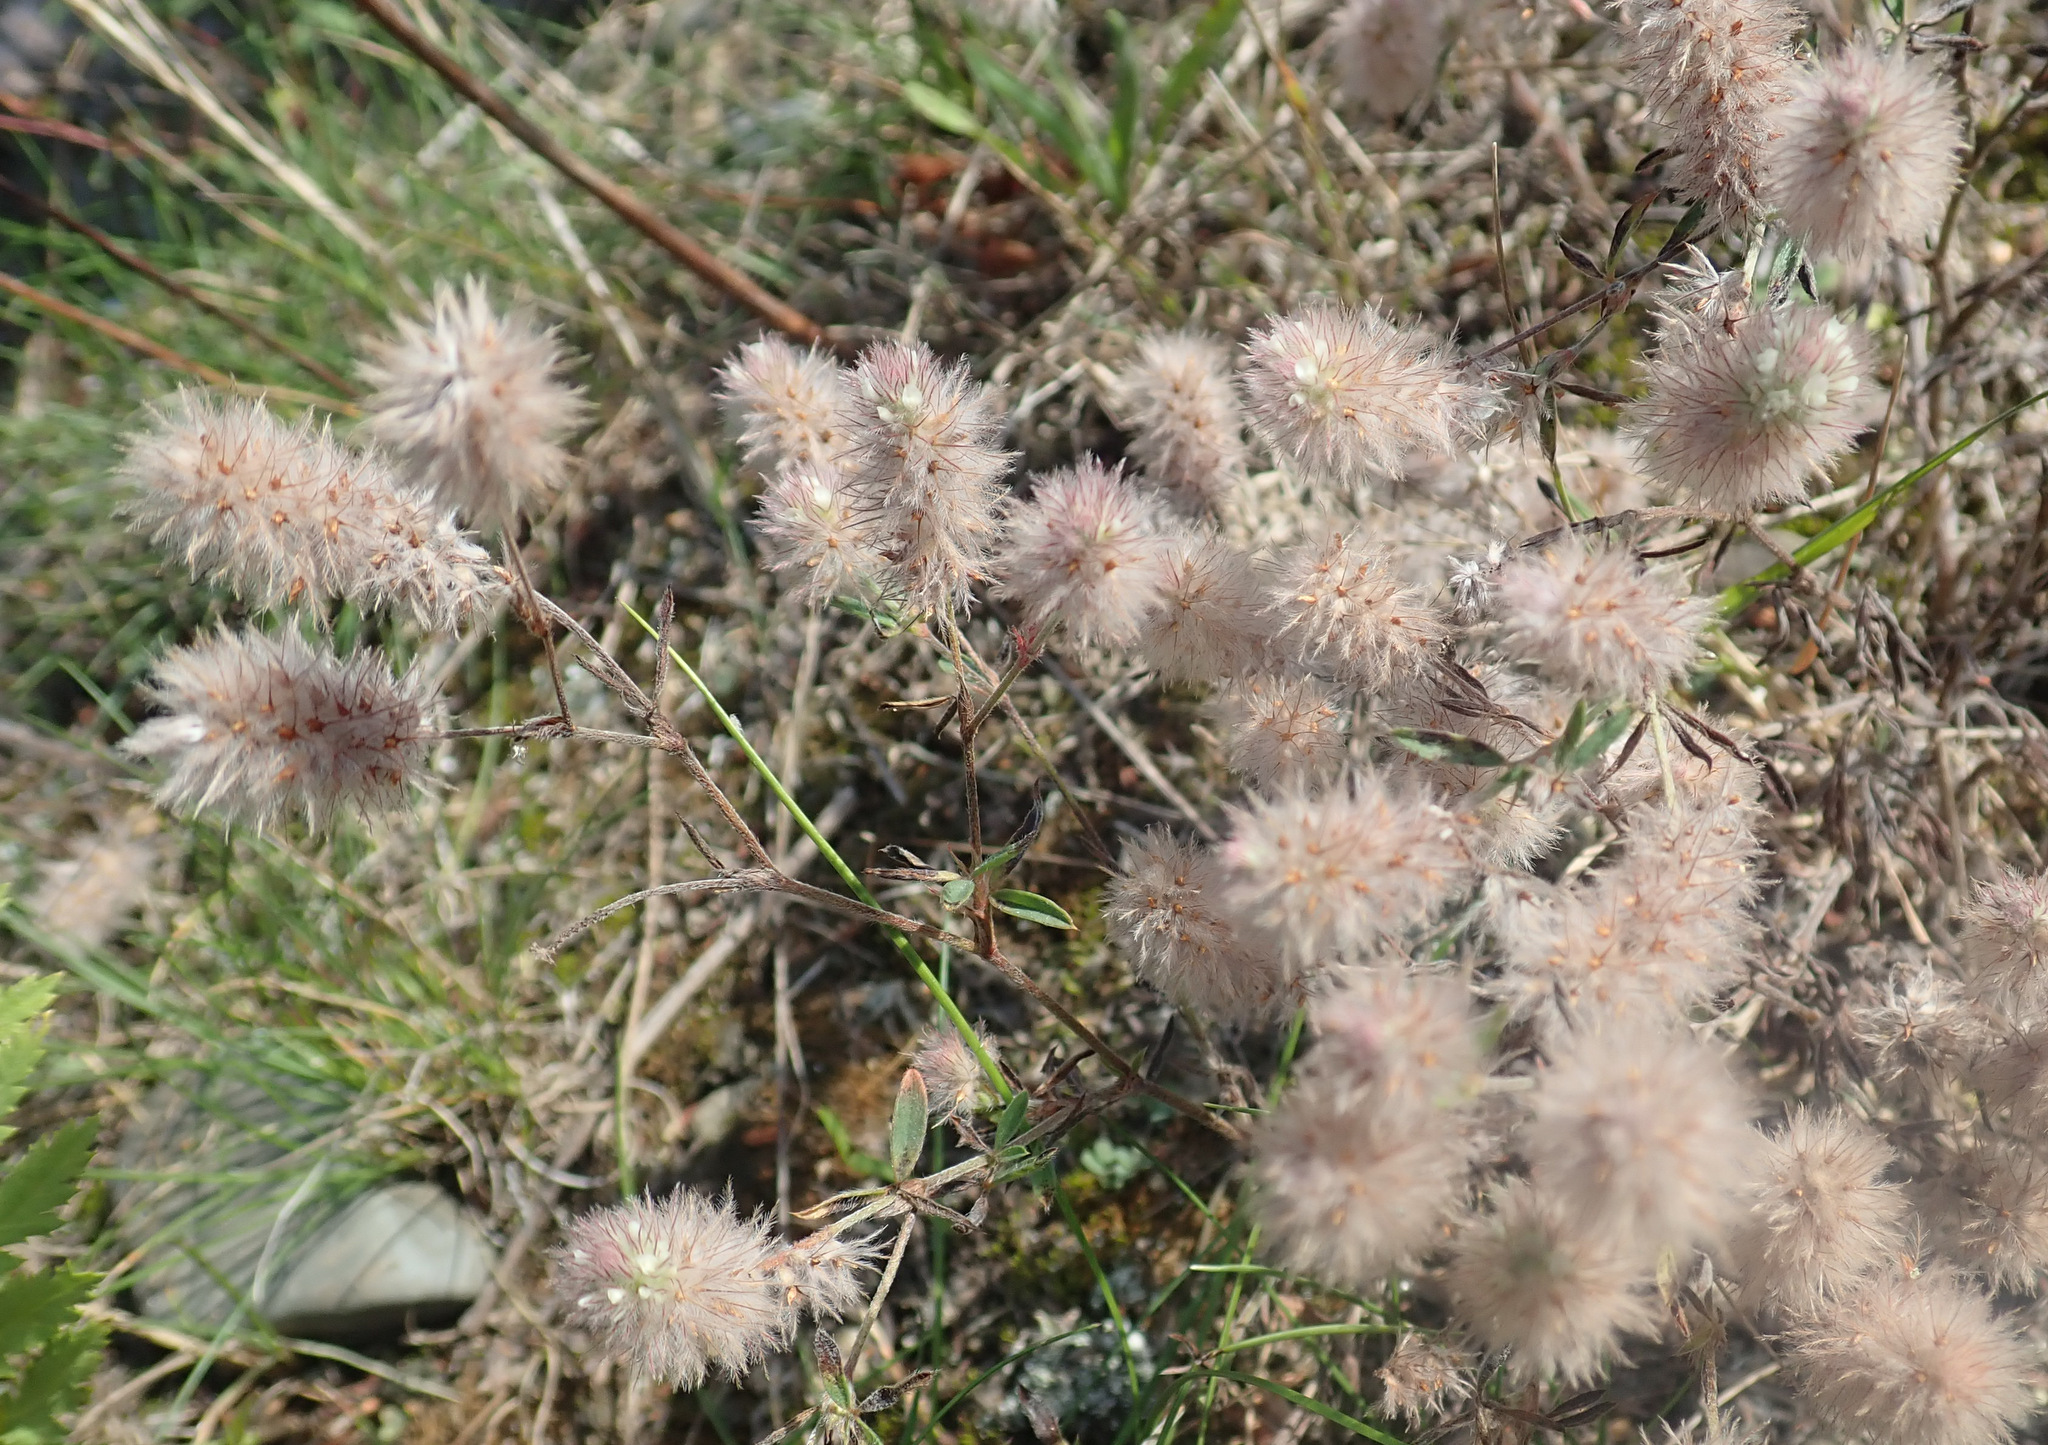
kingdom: Plantae
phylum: Tracheophyta
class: Magnoliopsida
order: Fabales
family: Fabaceae
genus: Trifolium
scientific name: Trifolium arvense
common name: Hare's-foot clover
